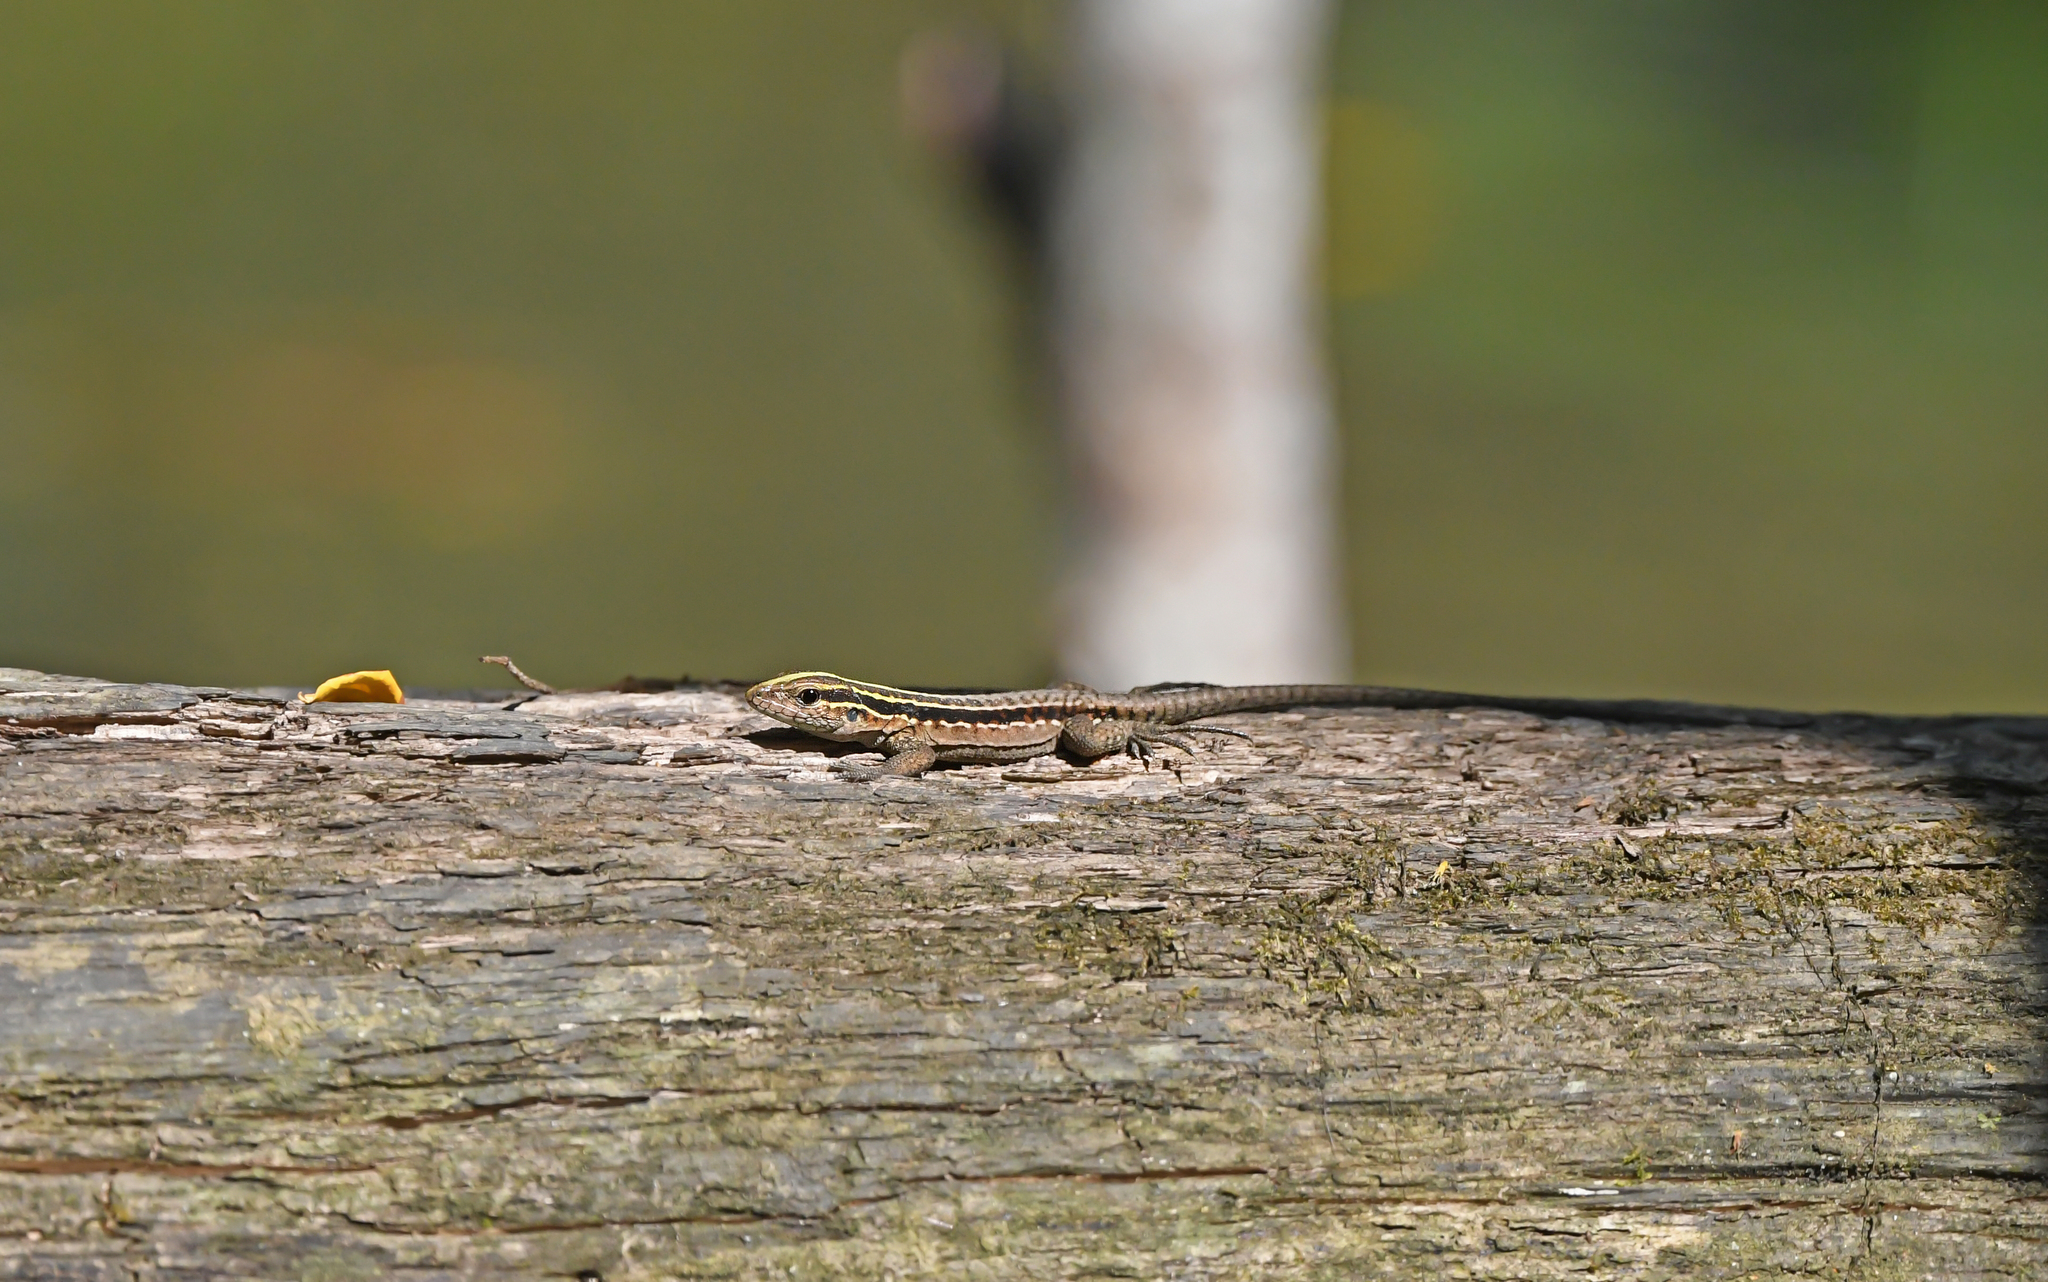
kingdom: Animalia
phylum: Chordata
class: Squamata
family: Teiidae
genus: Kentropyx
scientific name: Kentropyx pelviceps
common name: Forest whiptail
